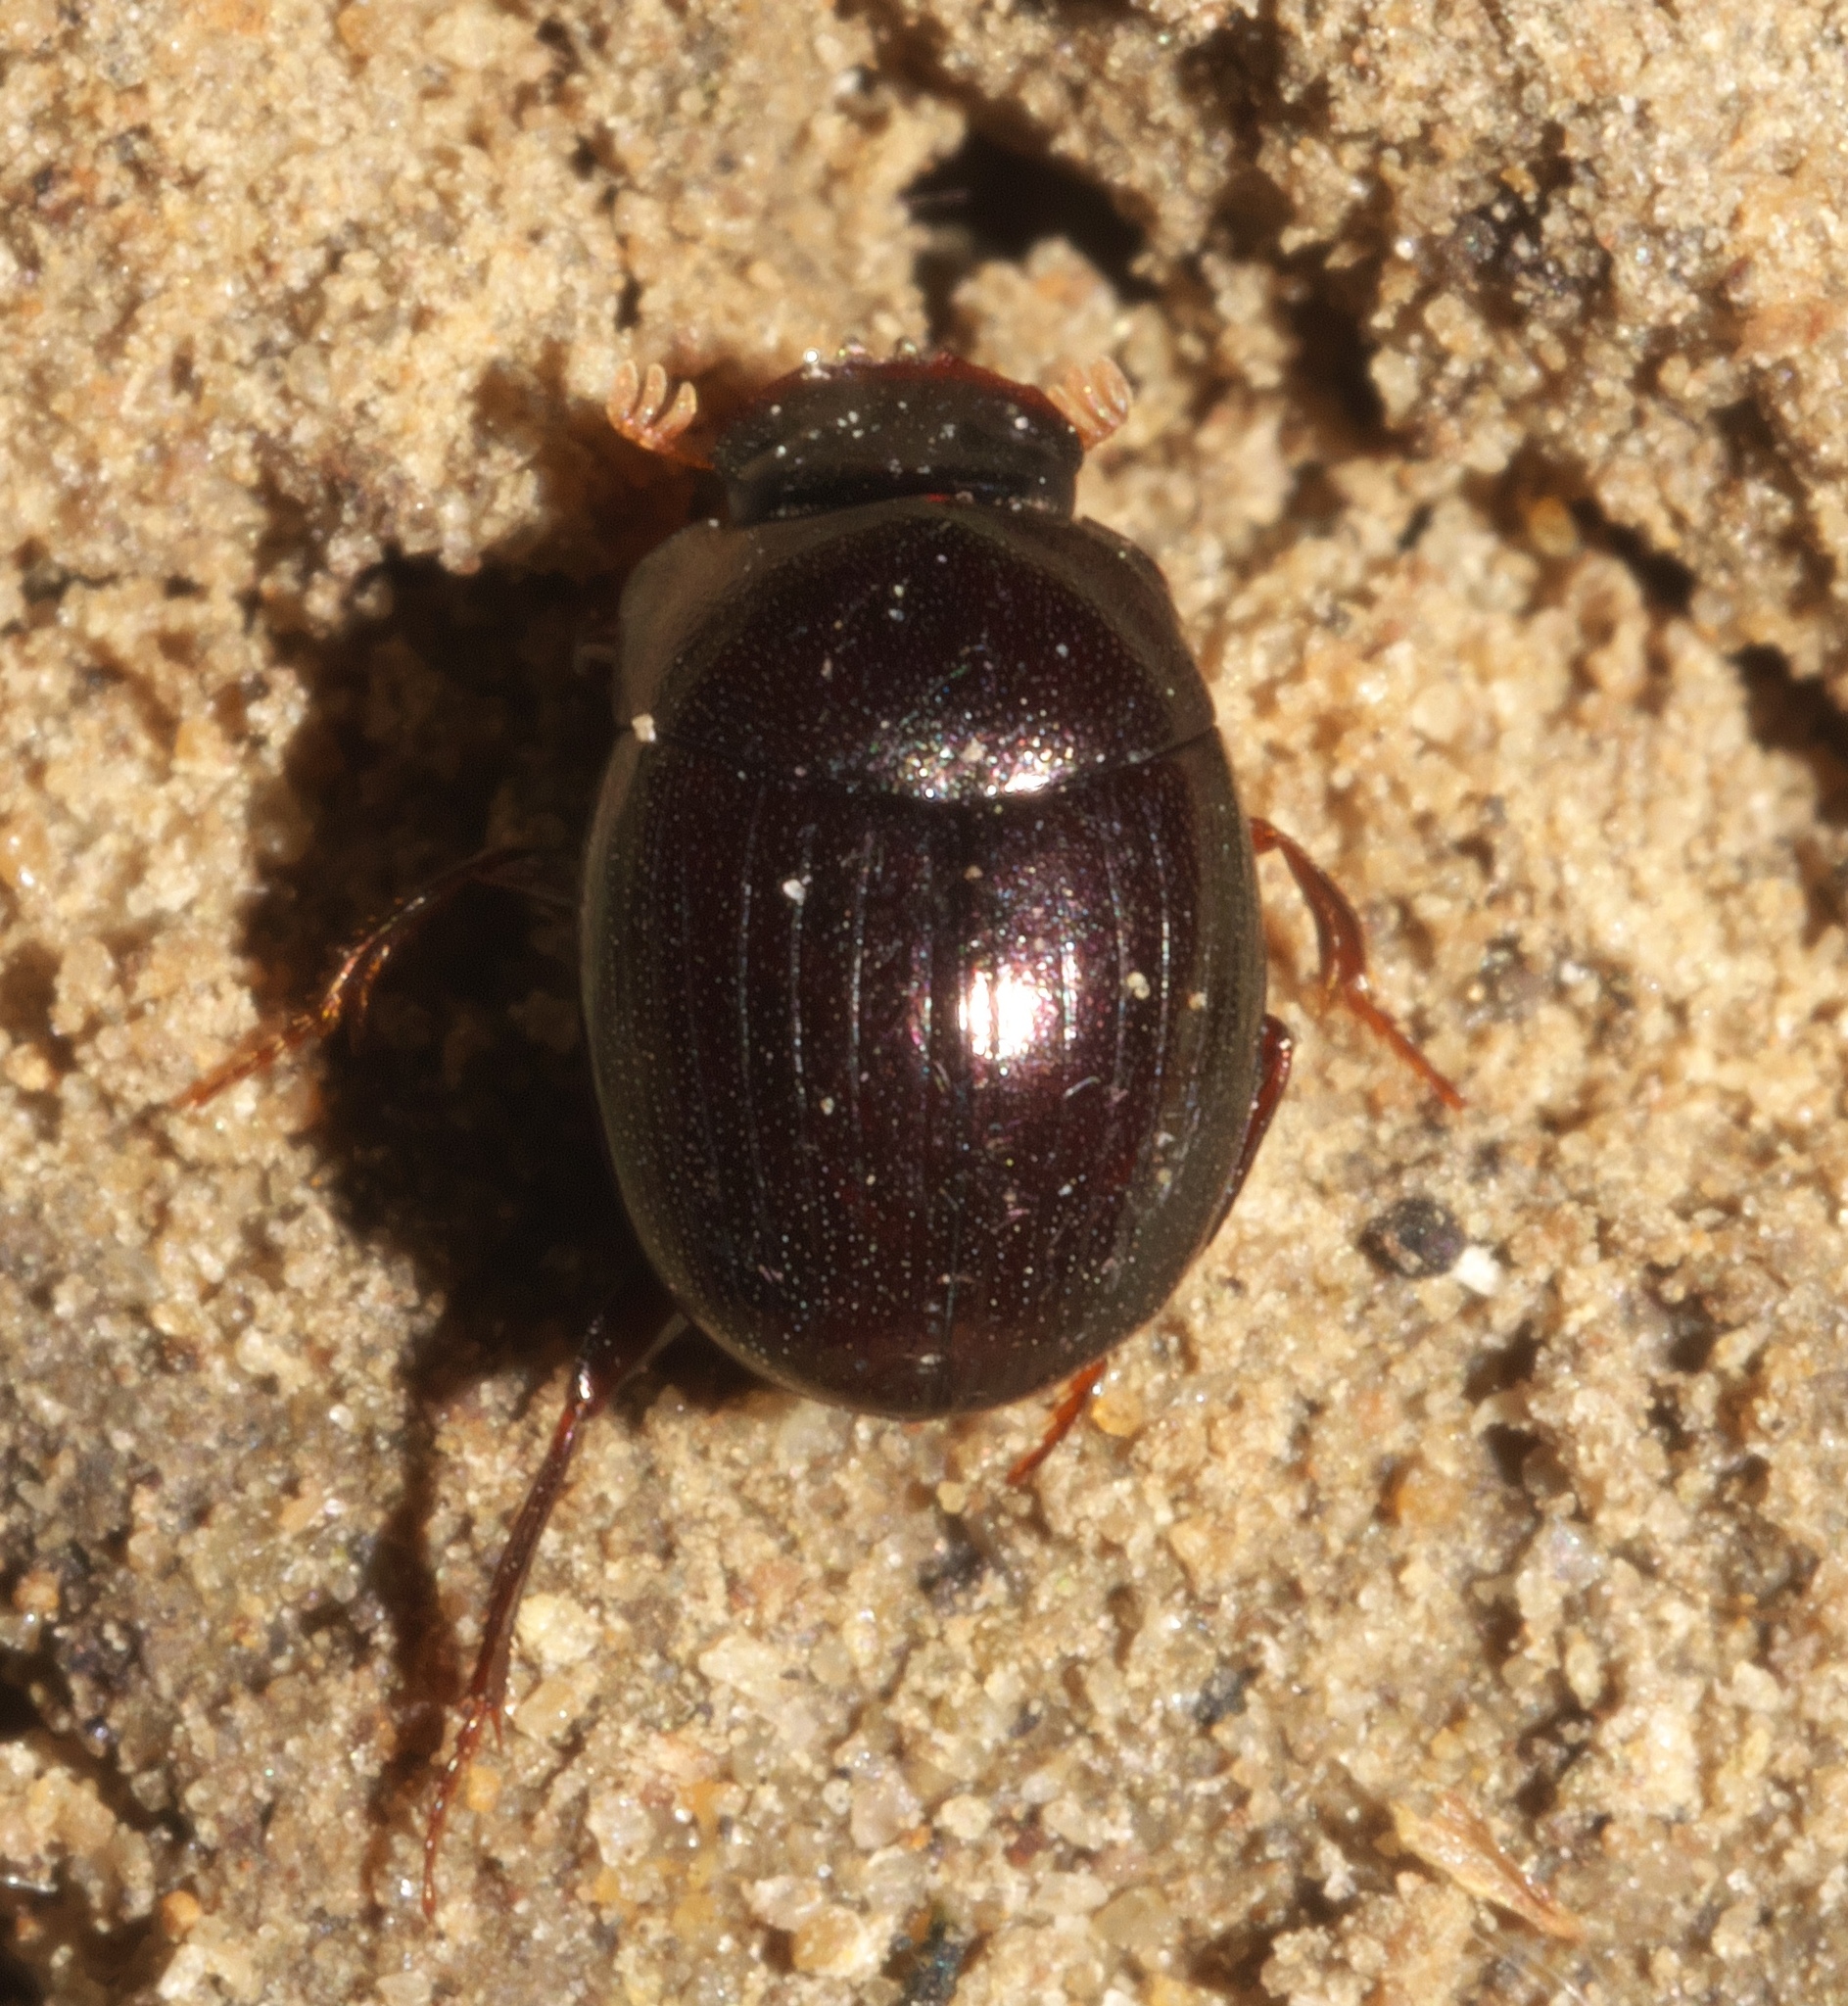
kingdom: Animalia
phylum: Arthropoda
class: Insecta
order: Coleoptera
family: Scarabaeidae
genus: Pseudocanthon
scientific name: Pseudocanthon perplexus
